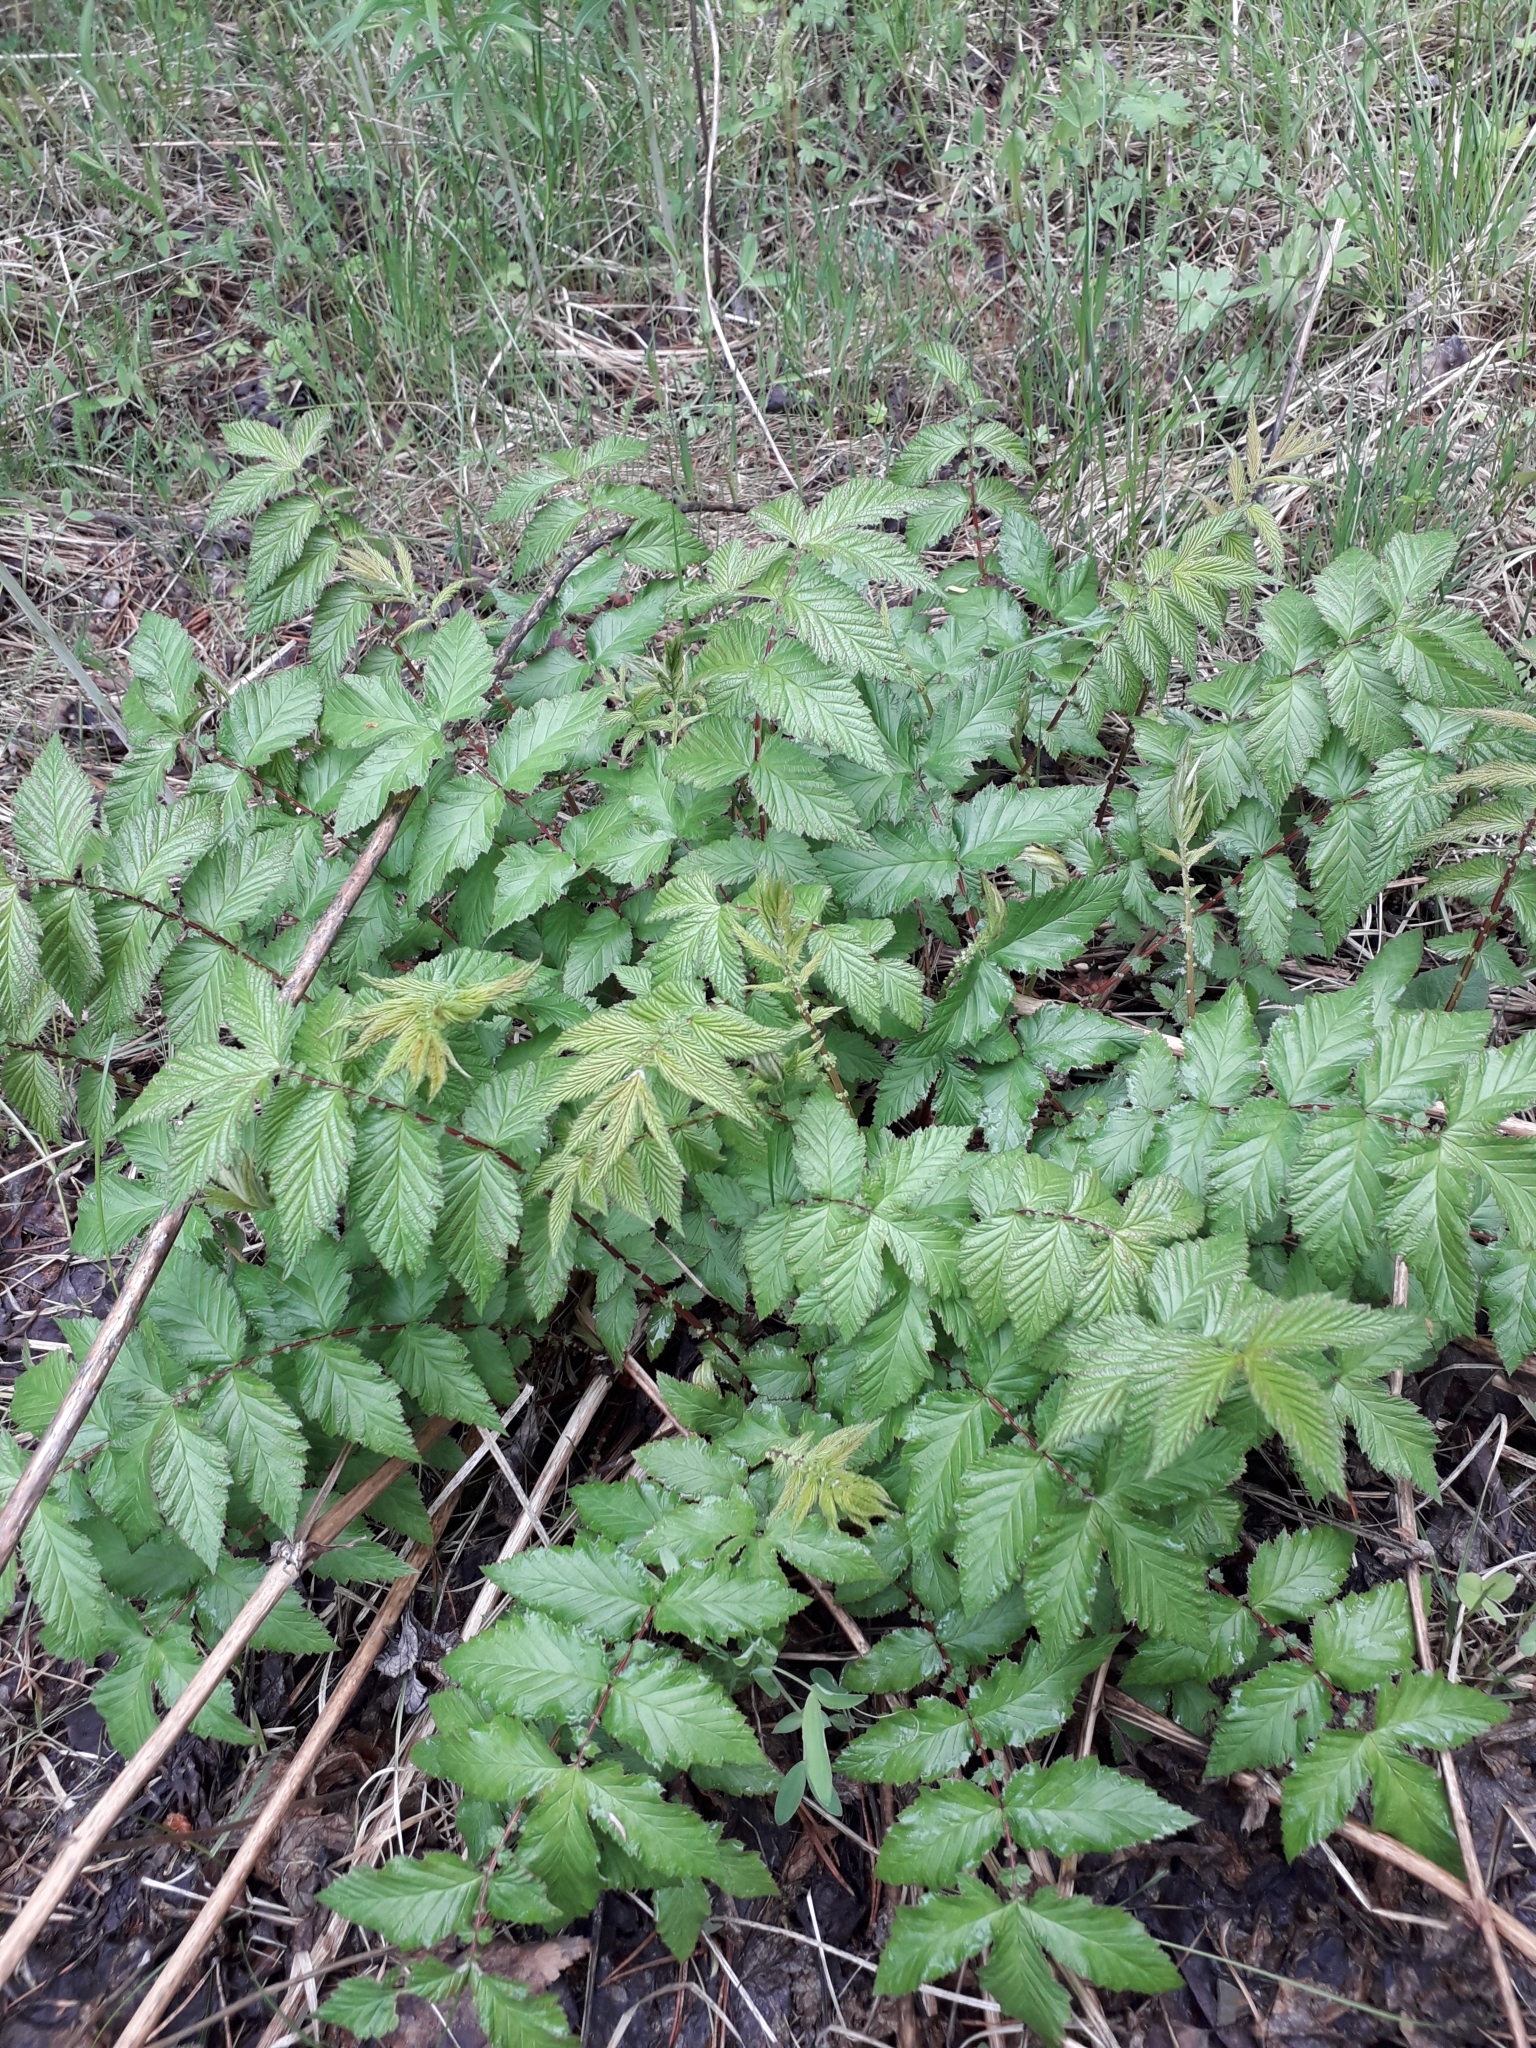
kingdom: Plantae
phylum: Tracheophyta
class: Magnoliopsida
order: Rosales
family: Rosaceae
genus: Filipendula
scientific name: Filipendula ulmaria
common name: Meadowsweet
